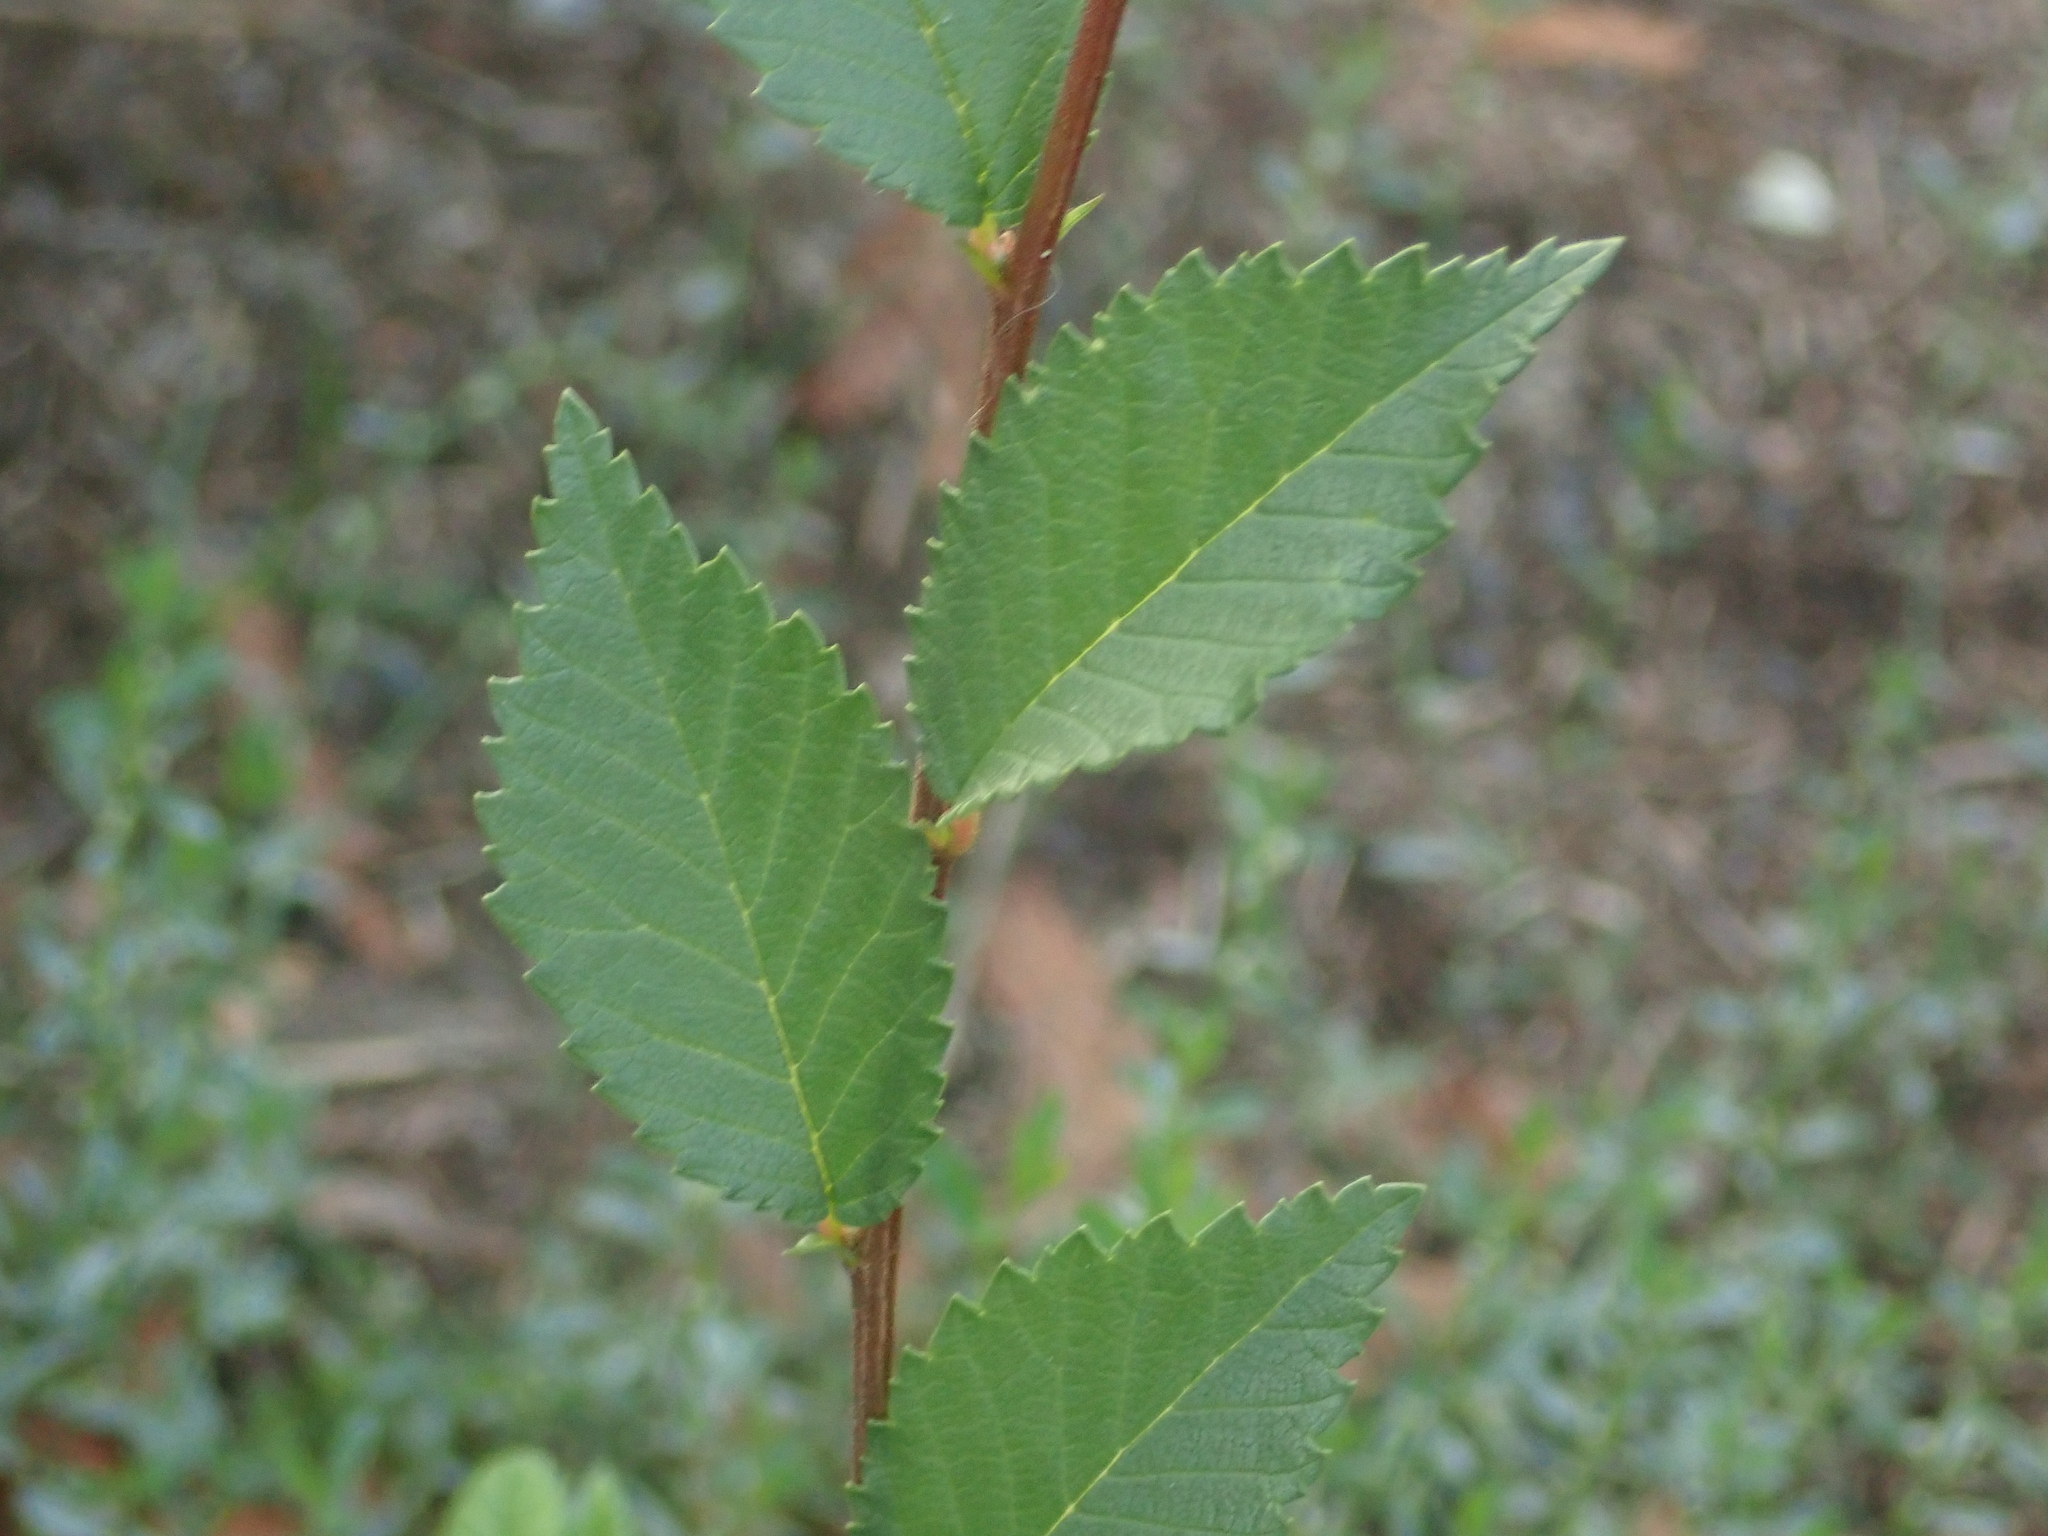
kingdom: Plantae
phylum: Tracheophyta
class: Magnoliopsida
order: Rosales
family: Ulmaceae
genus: Ulmus
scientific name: Ulmus minor
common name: Small-leaved elm
